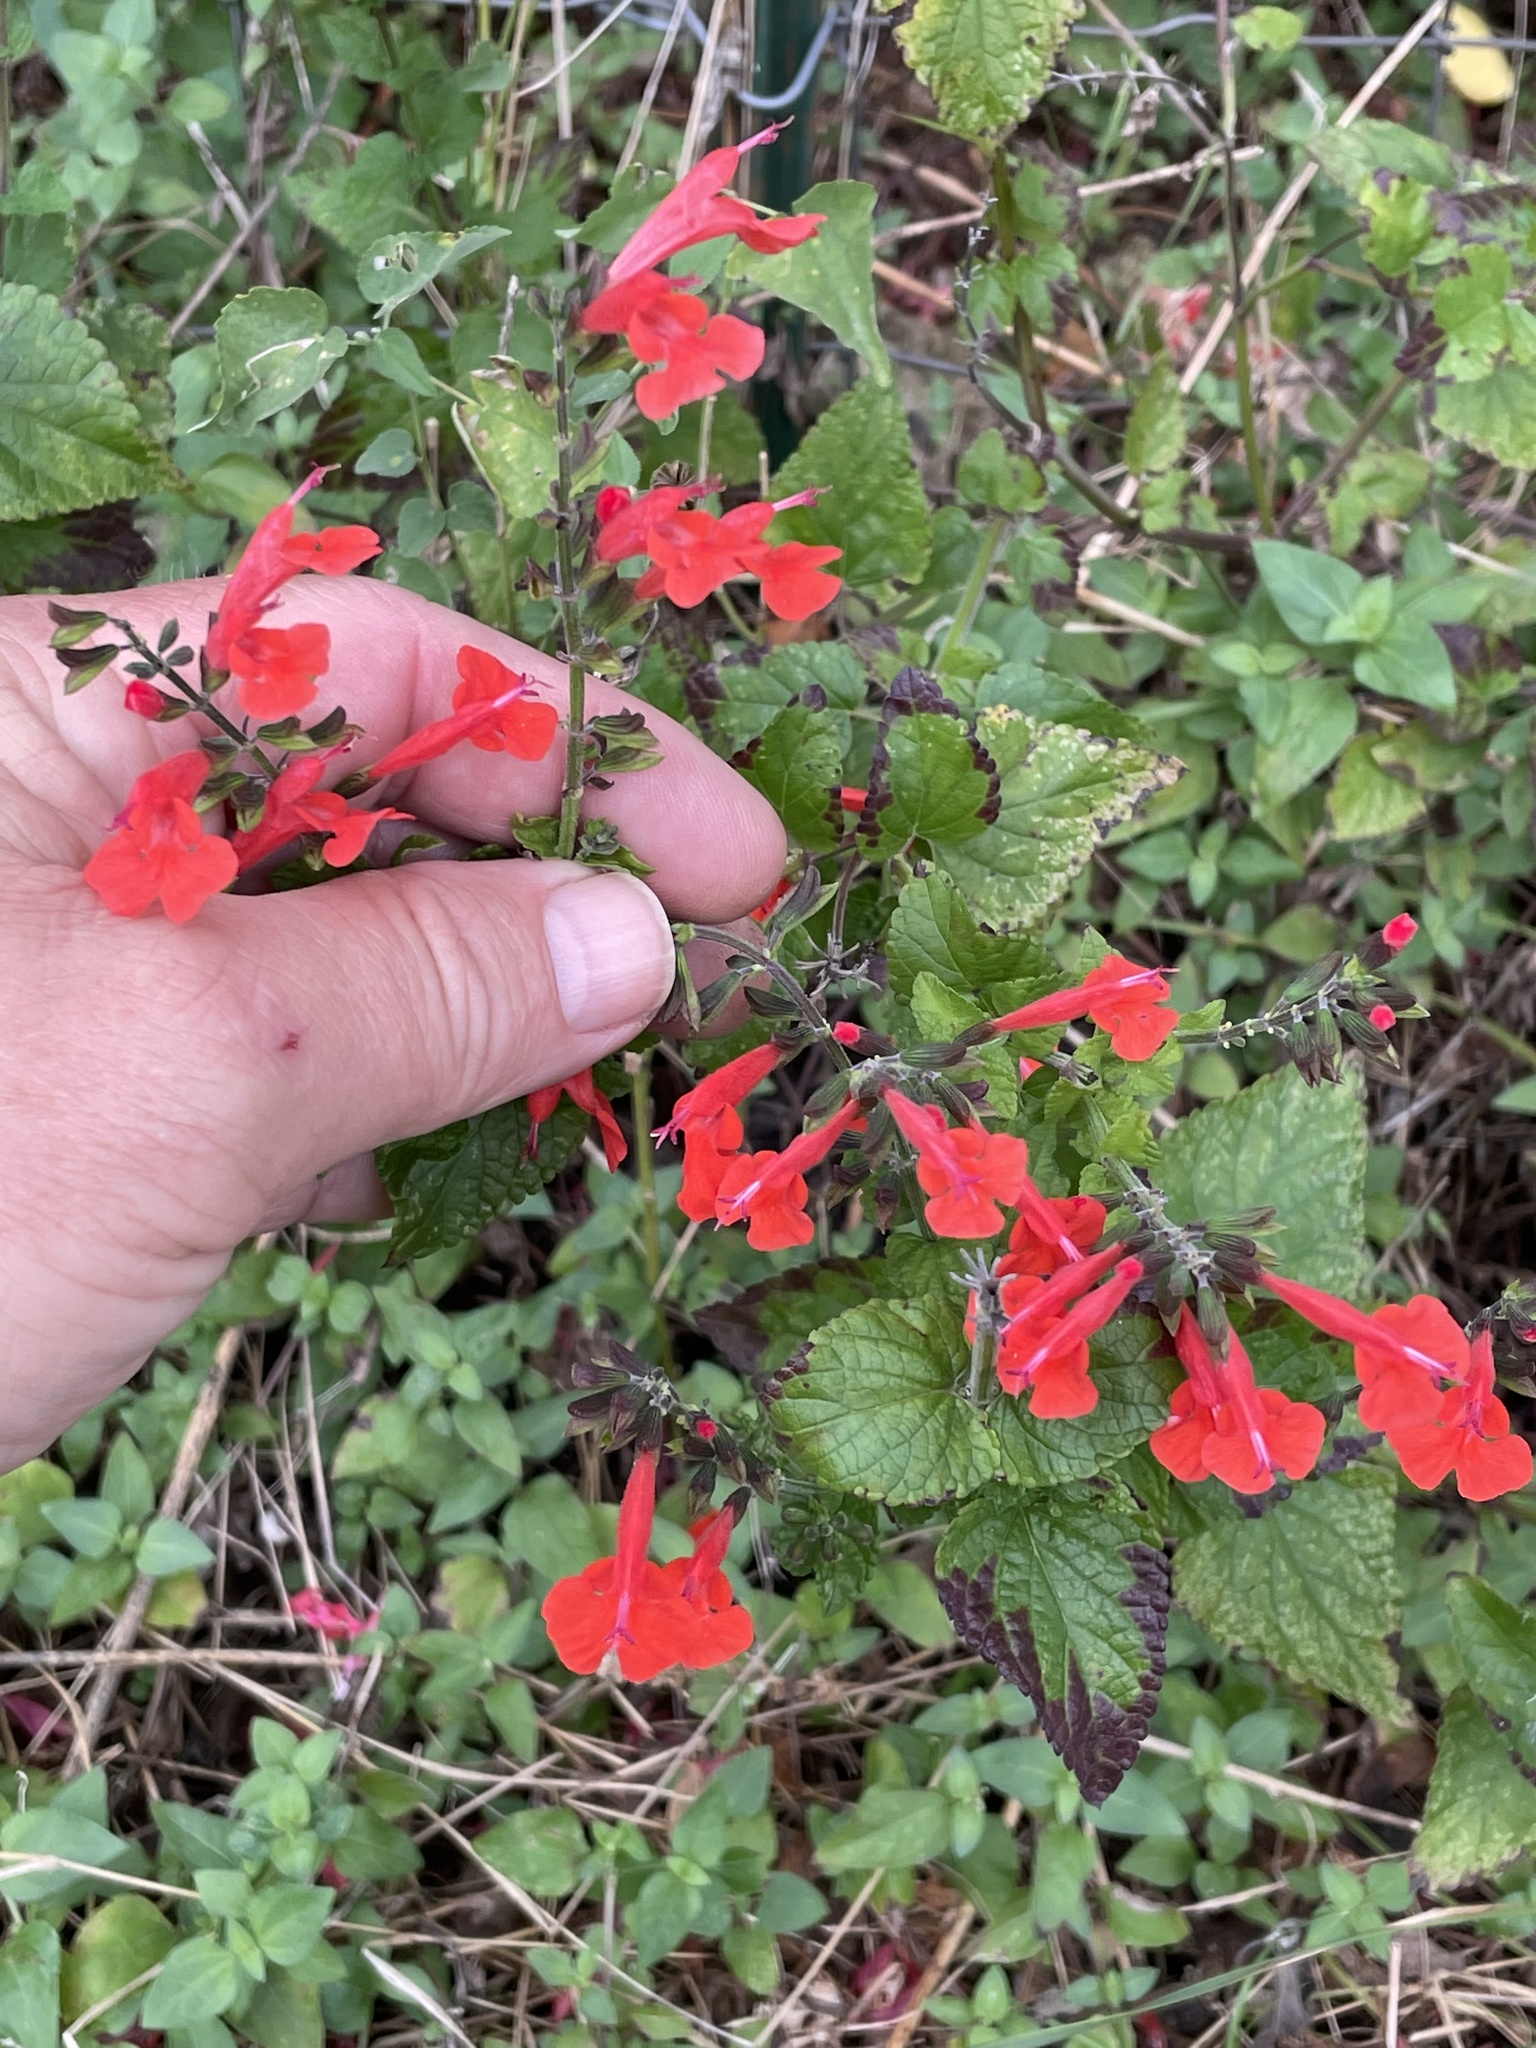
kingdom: Plantae
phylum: Tracheophyta
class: Magnoliopsida
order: Lamiales
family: Lamiaceae
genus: Salvia
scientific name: Salvia coccinea
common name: Blood sage
